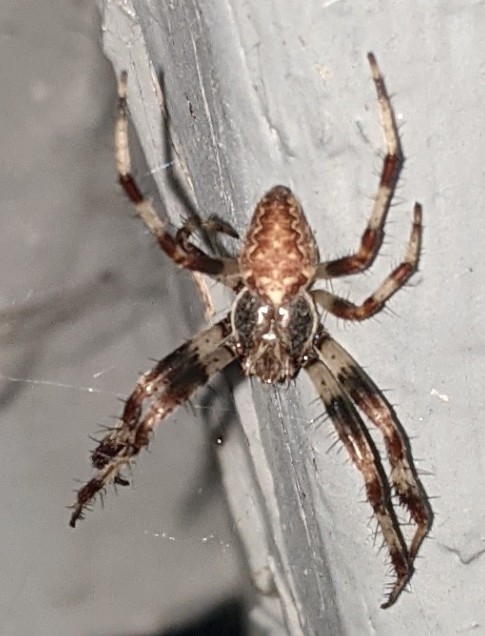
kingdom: Animalia
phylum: Arthropoda
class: Arachnida
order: Araneae
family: Araneidae
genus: Araneus
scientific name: Araneus marmoreus
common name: Marbled orbweaver
